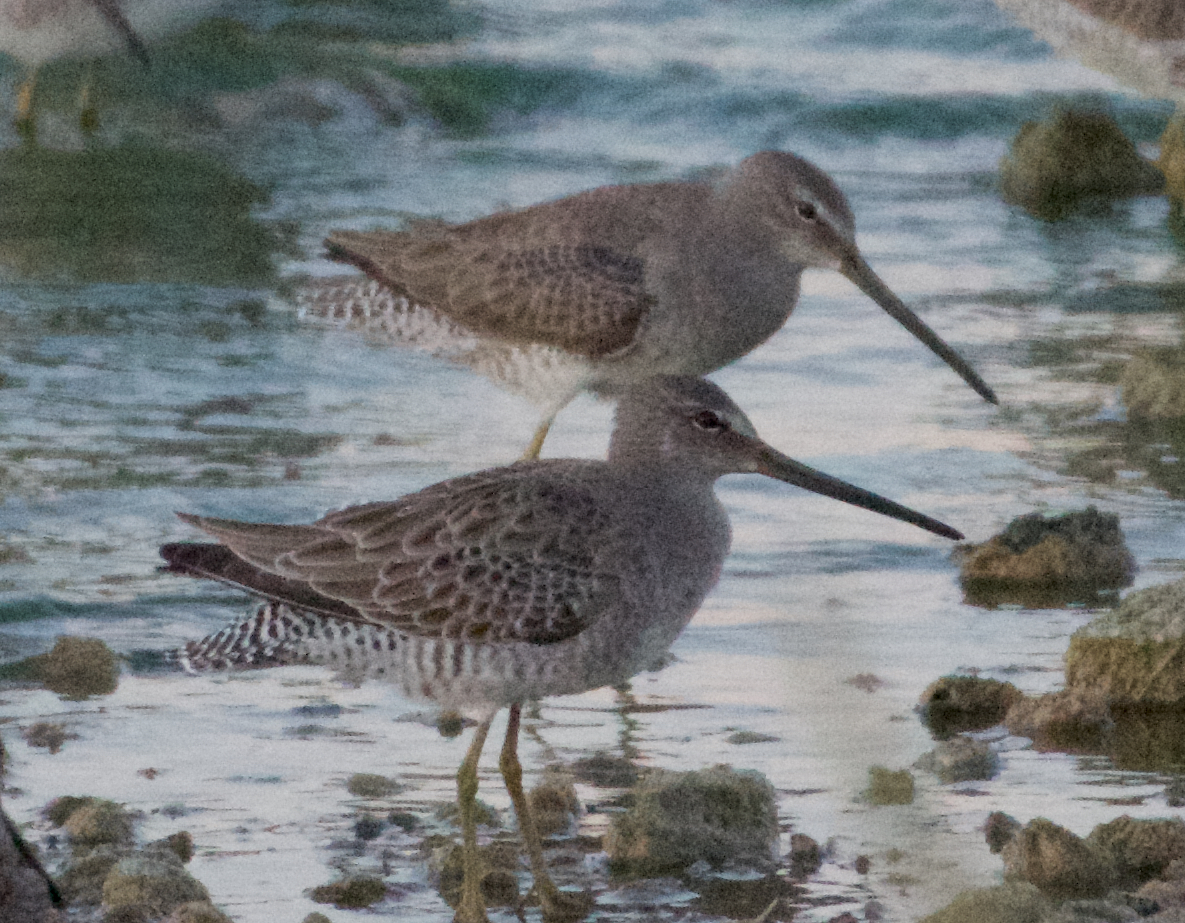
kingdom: Animalia
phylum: Chordata
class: Aves
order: Charadriiformes
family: Scolopacidae
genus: Limnodromus
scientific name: Limnodromus scolopaceus
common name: Long-billed dowitcher
